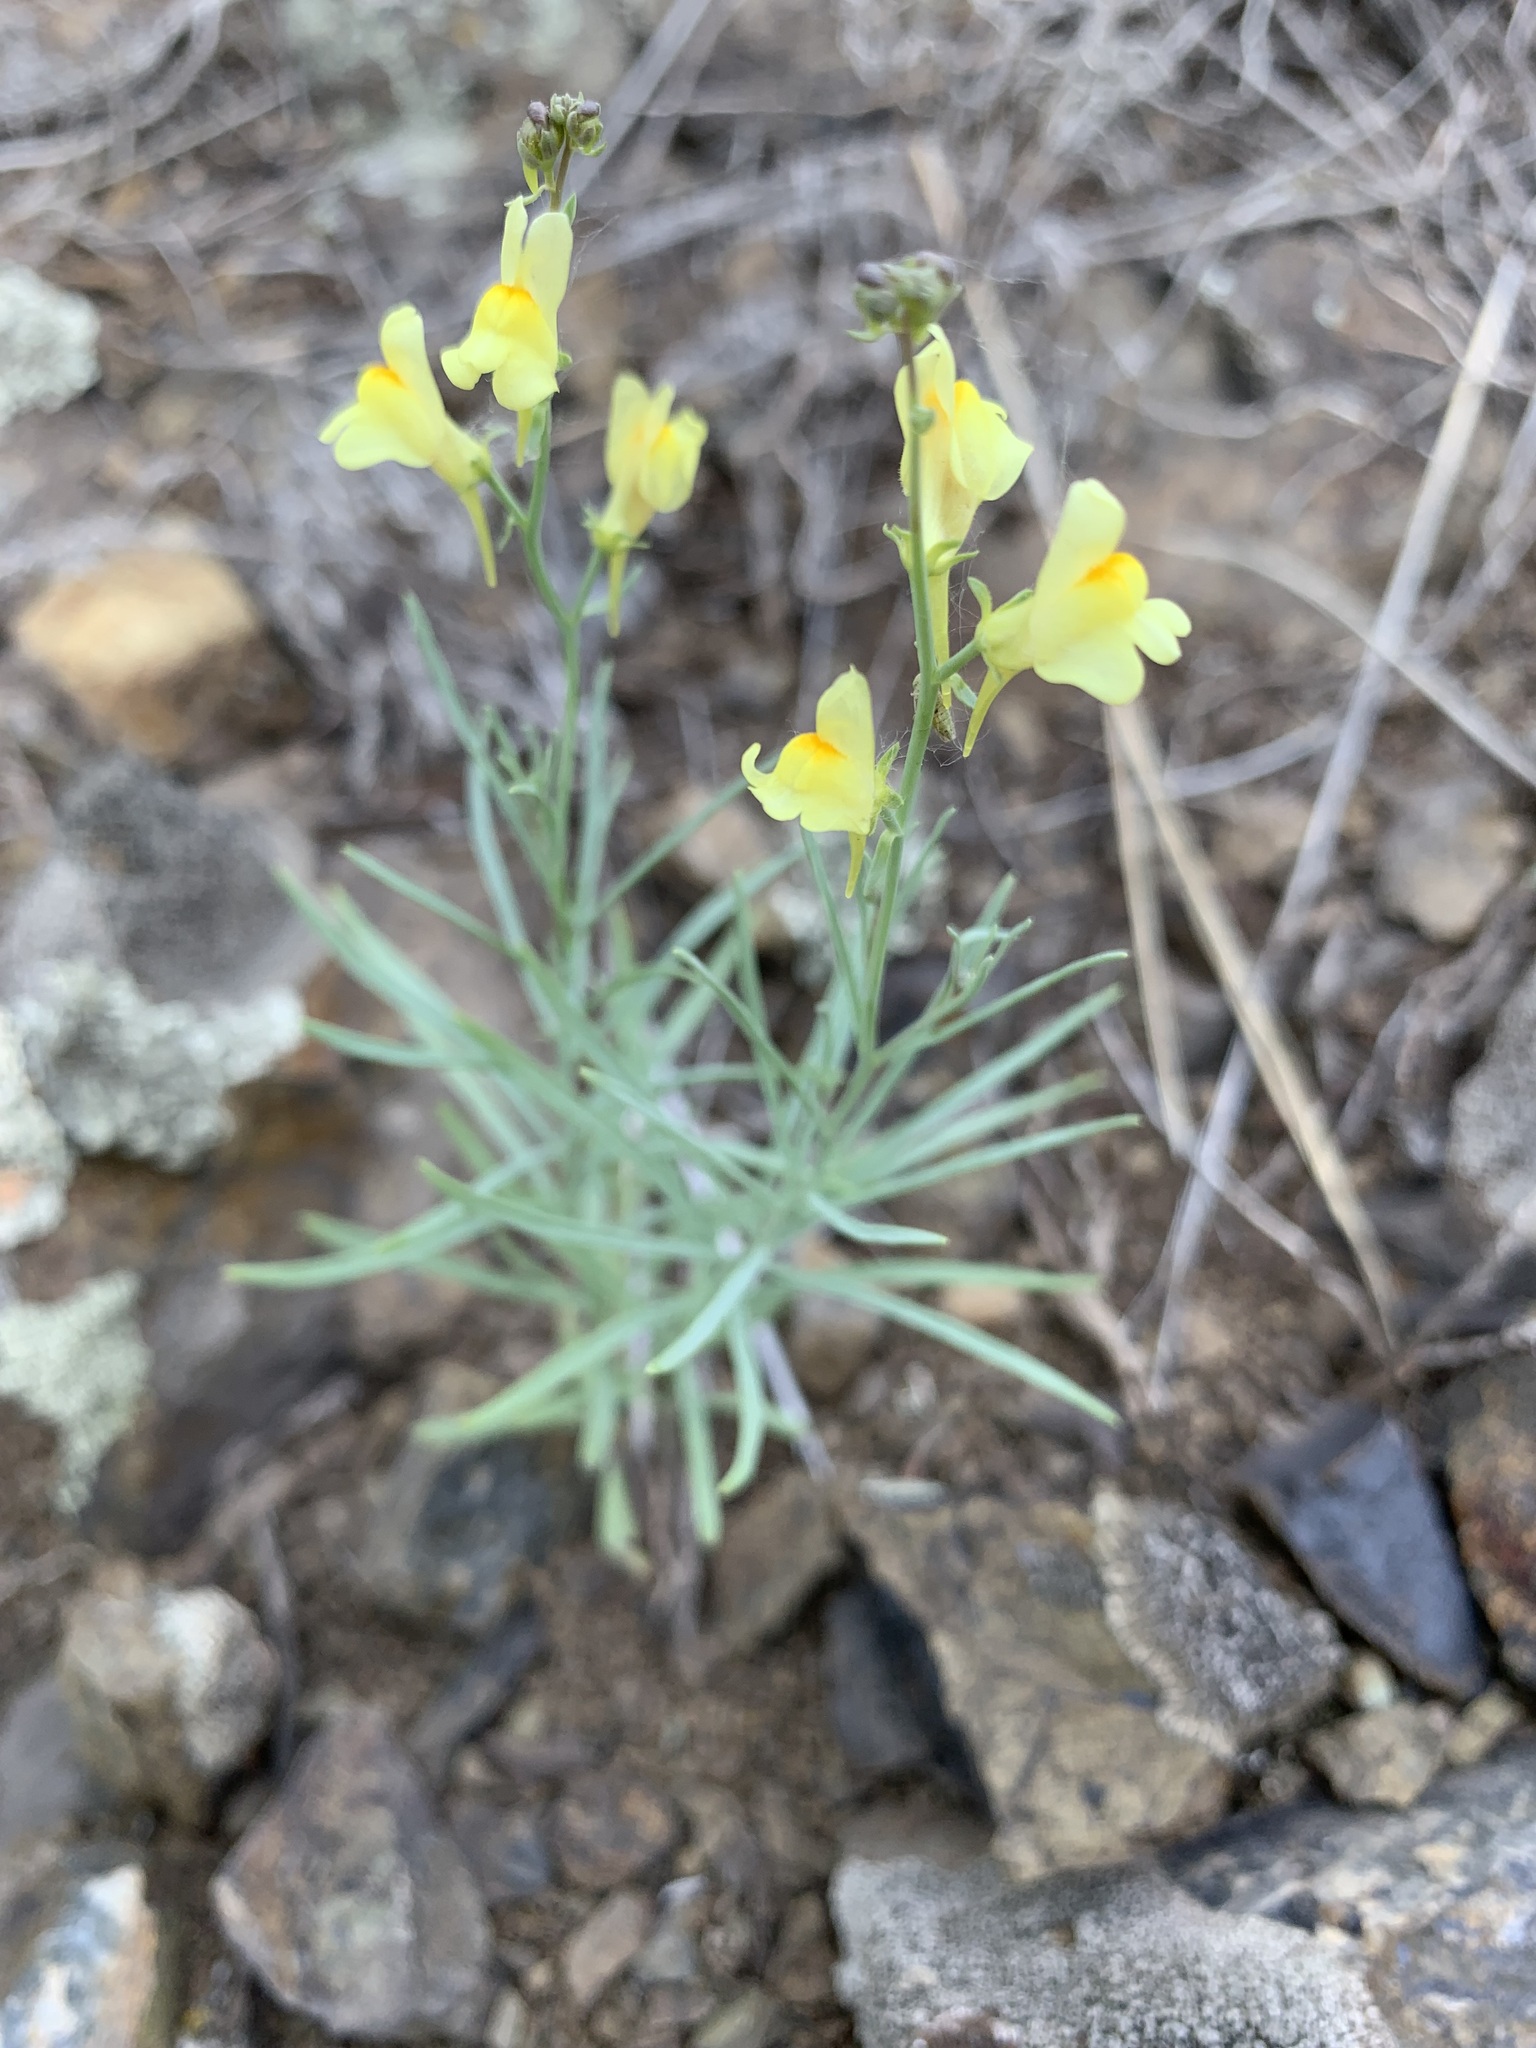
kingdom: Plantae
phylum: Tracheophyta
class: Magnoliopsida
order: Lamiales
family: Plantaginaceae
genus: Linaria
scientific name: Linaria odora
